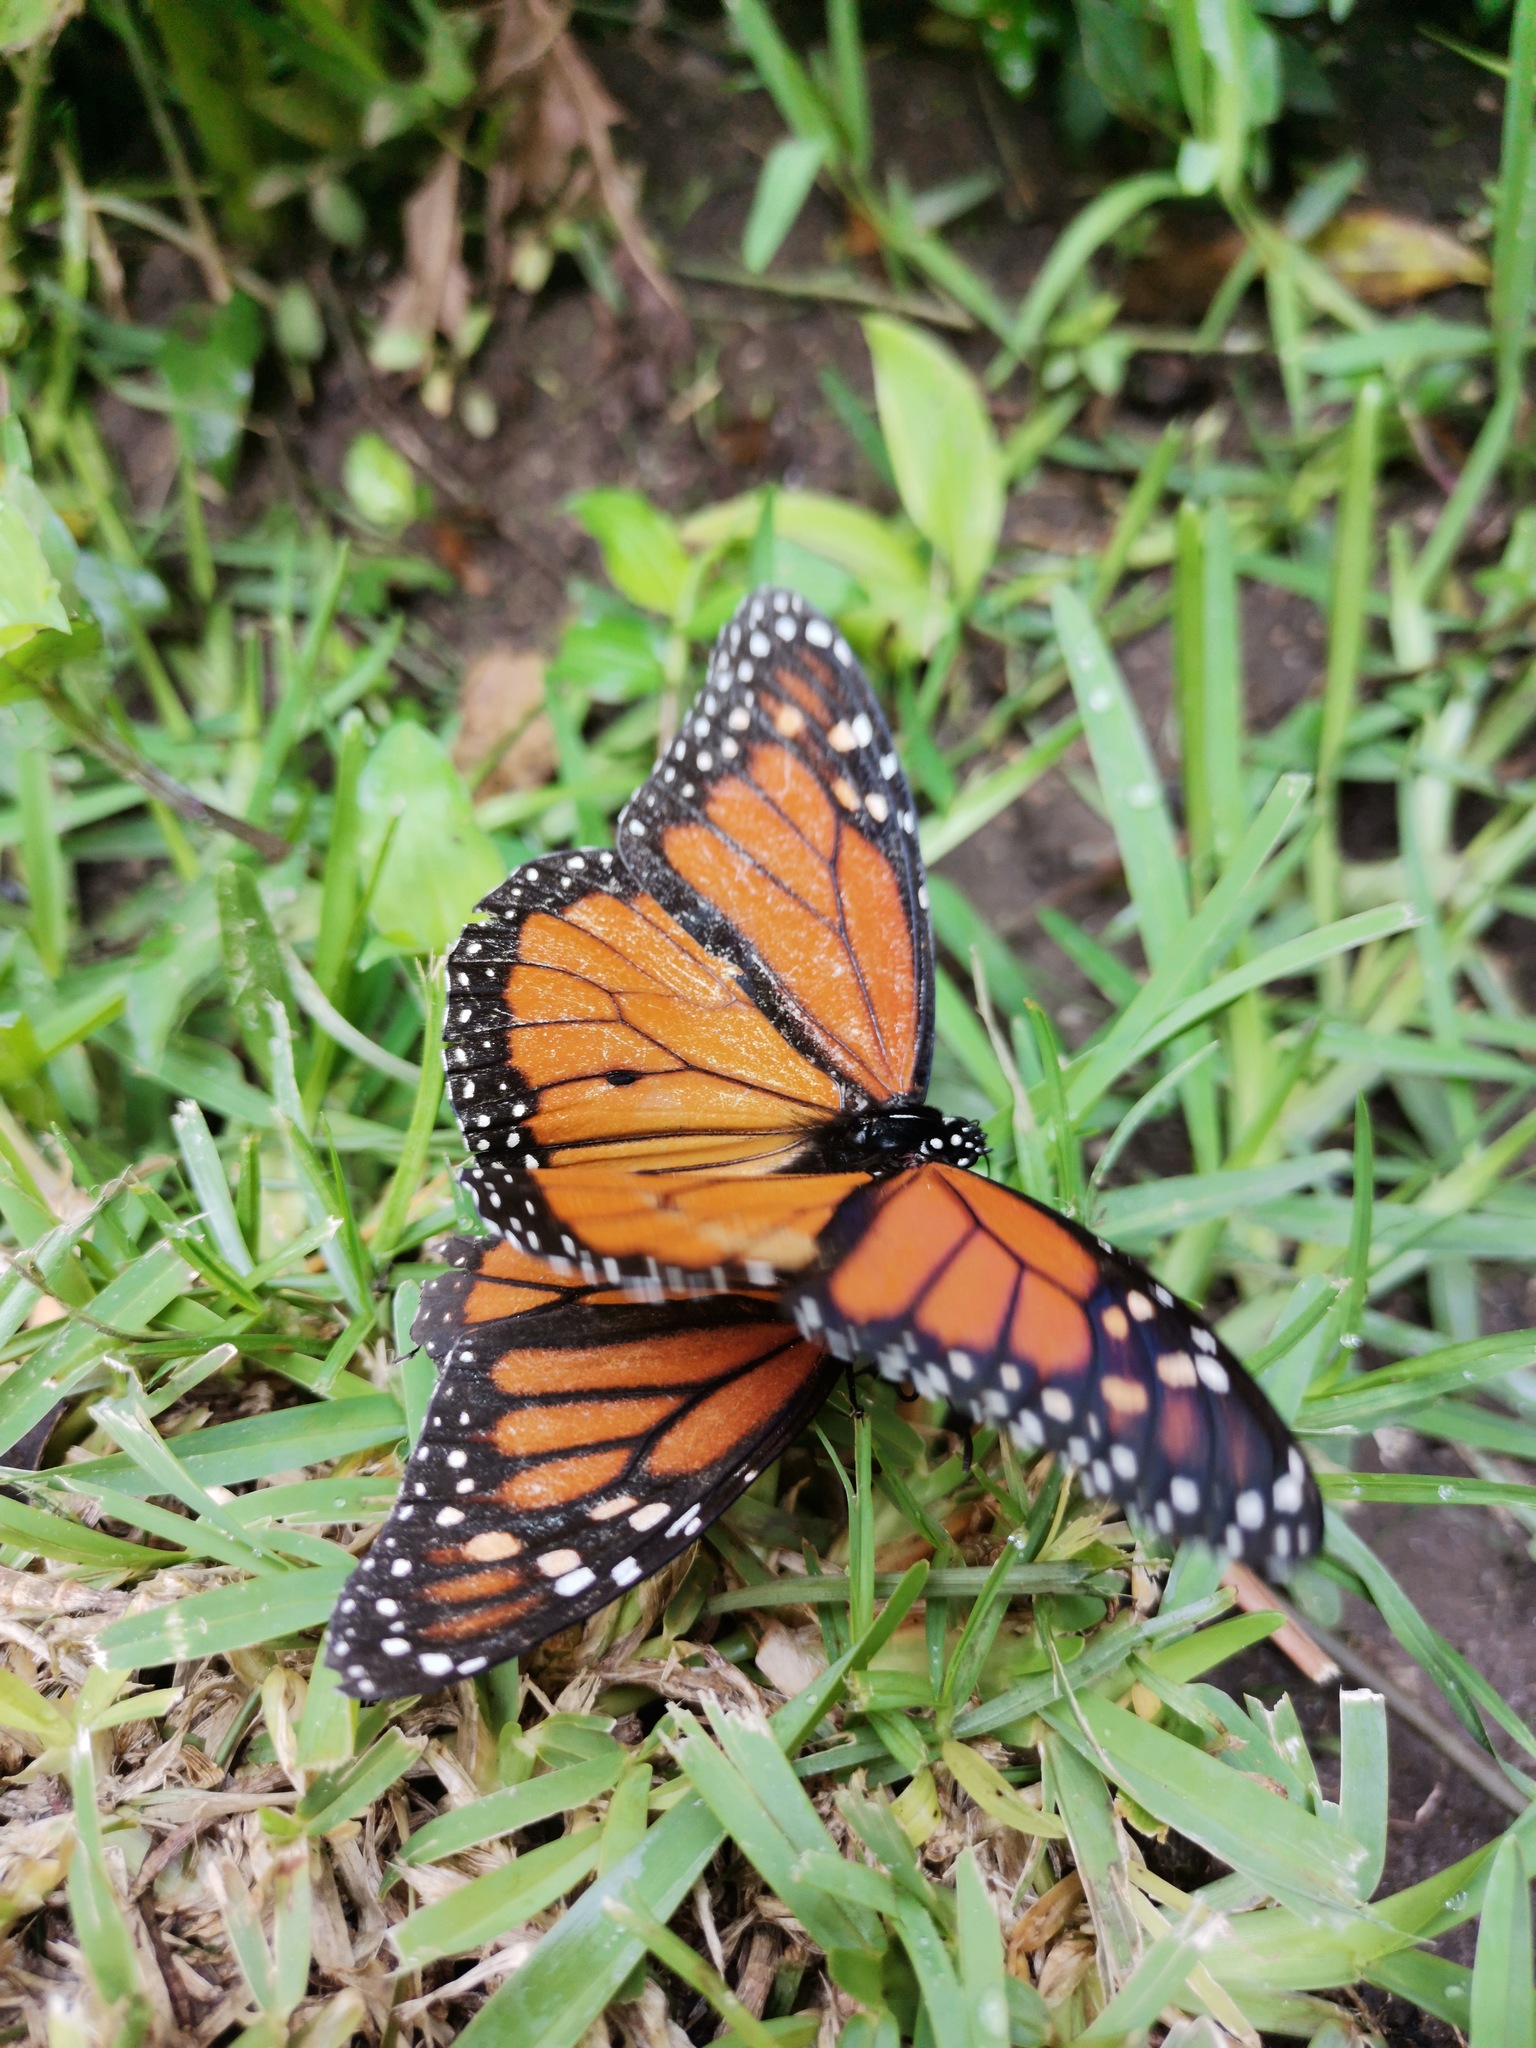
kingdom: Animalia
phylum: Arthropoda
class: Insecta
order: Lepidoptera
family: Nymphalidae
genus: Danaus
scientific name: Danaus plexippus
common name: Monarch
